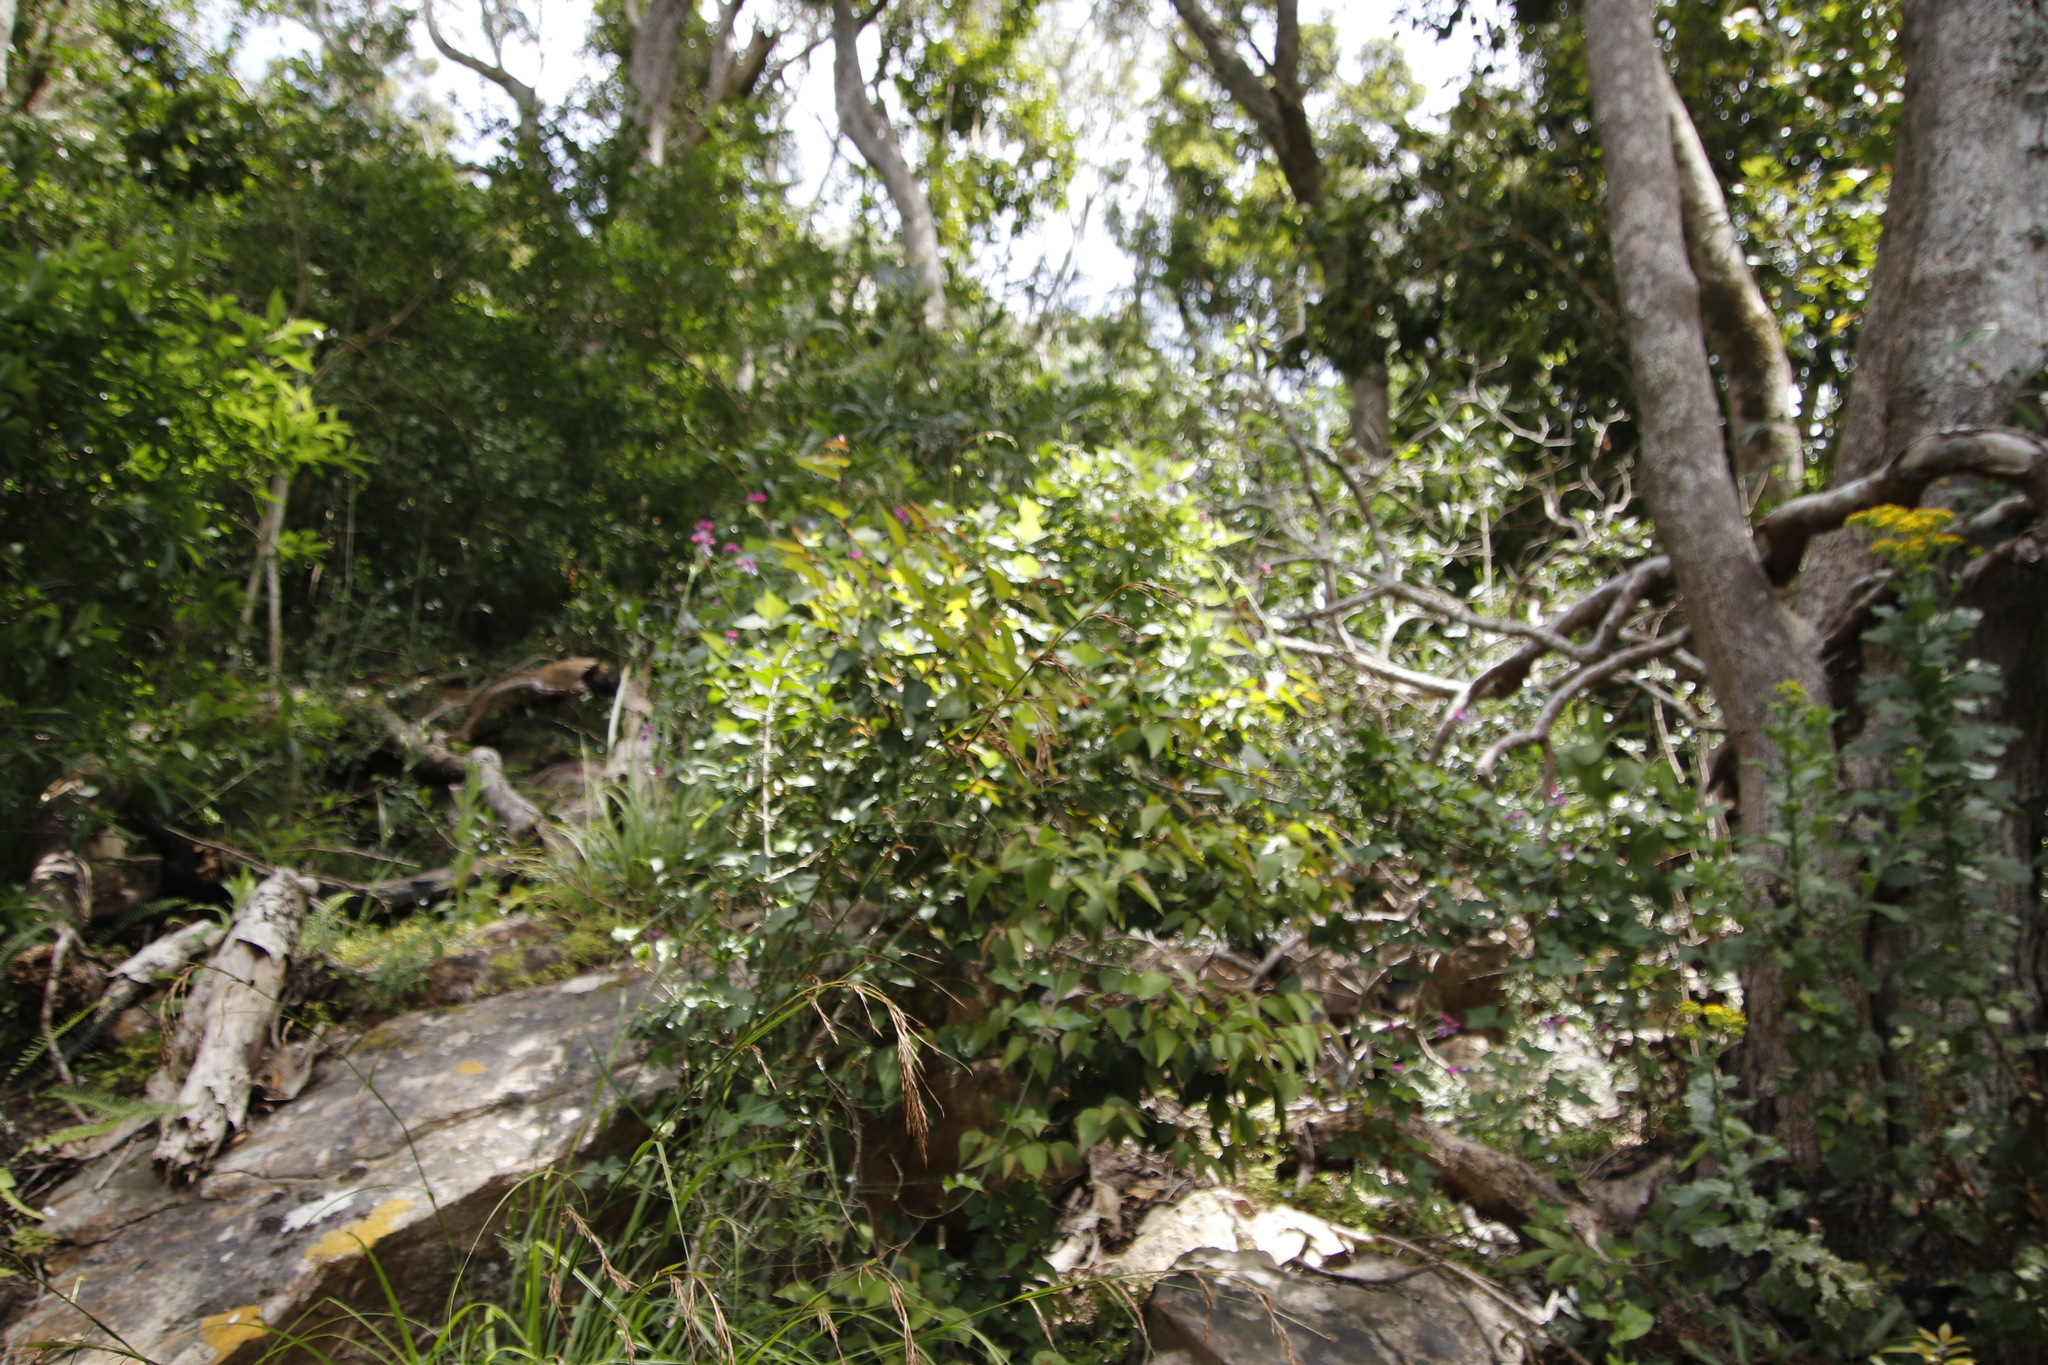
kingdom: Plantae
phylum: Tracheophyta
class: Magnoliopsida
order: Fabales
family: Fabaceae
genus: Dipogon
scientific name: Dipogon lignosus
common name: Okie bean
